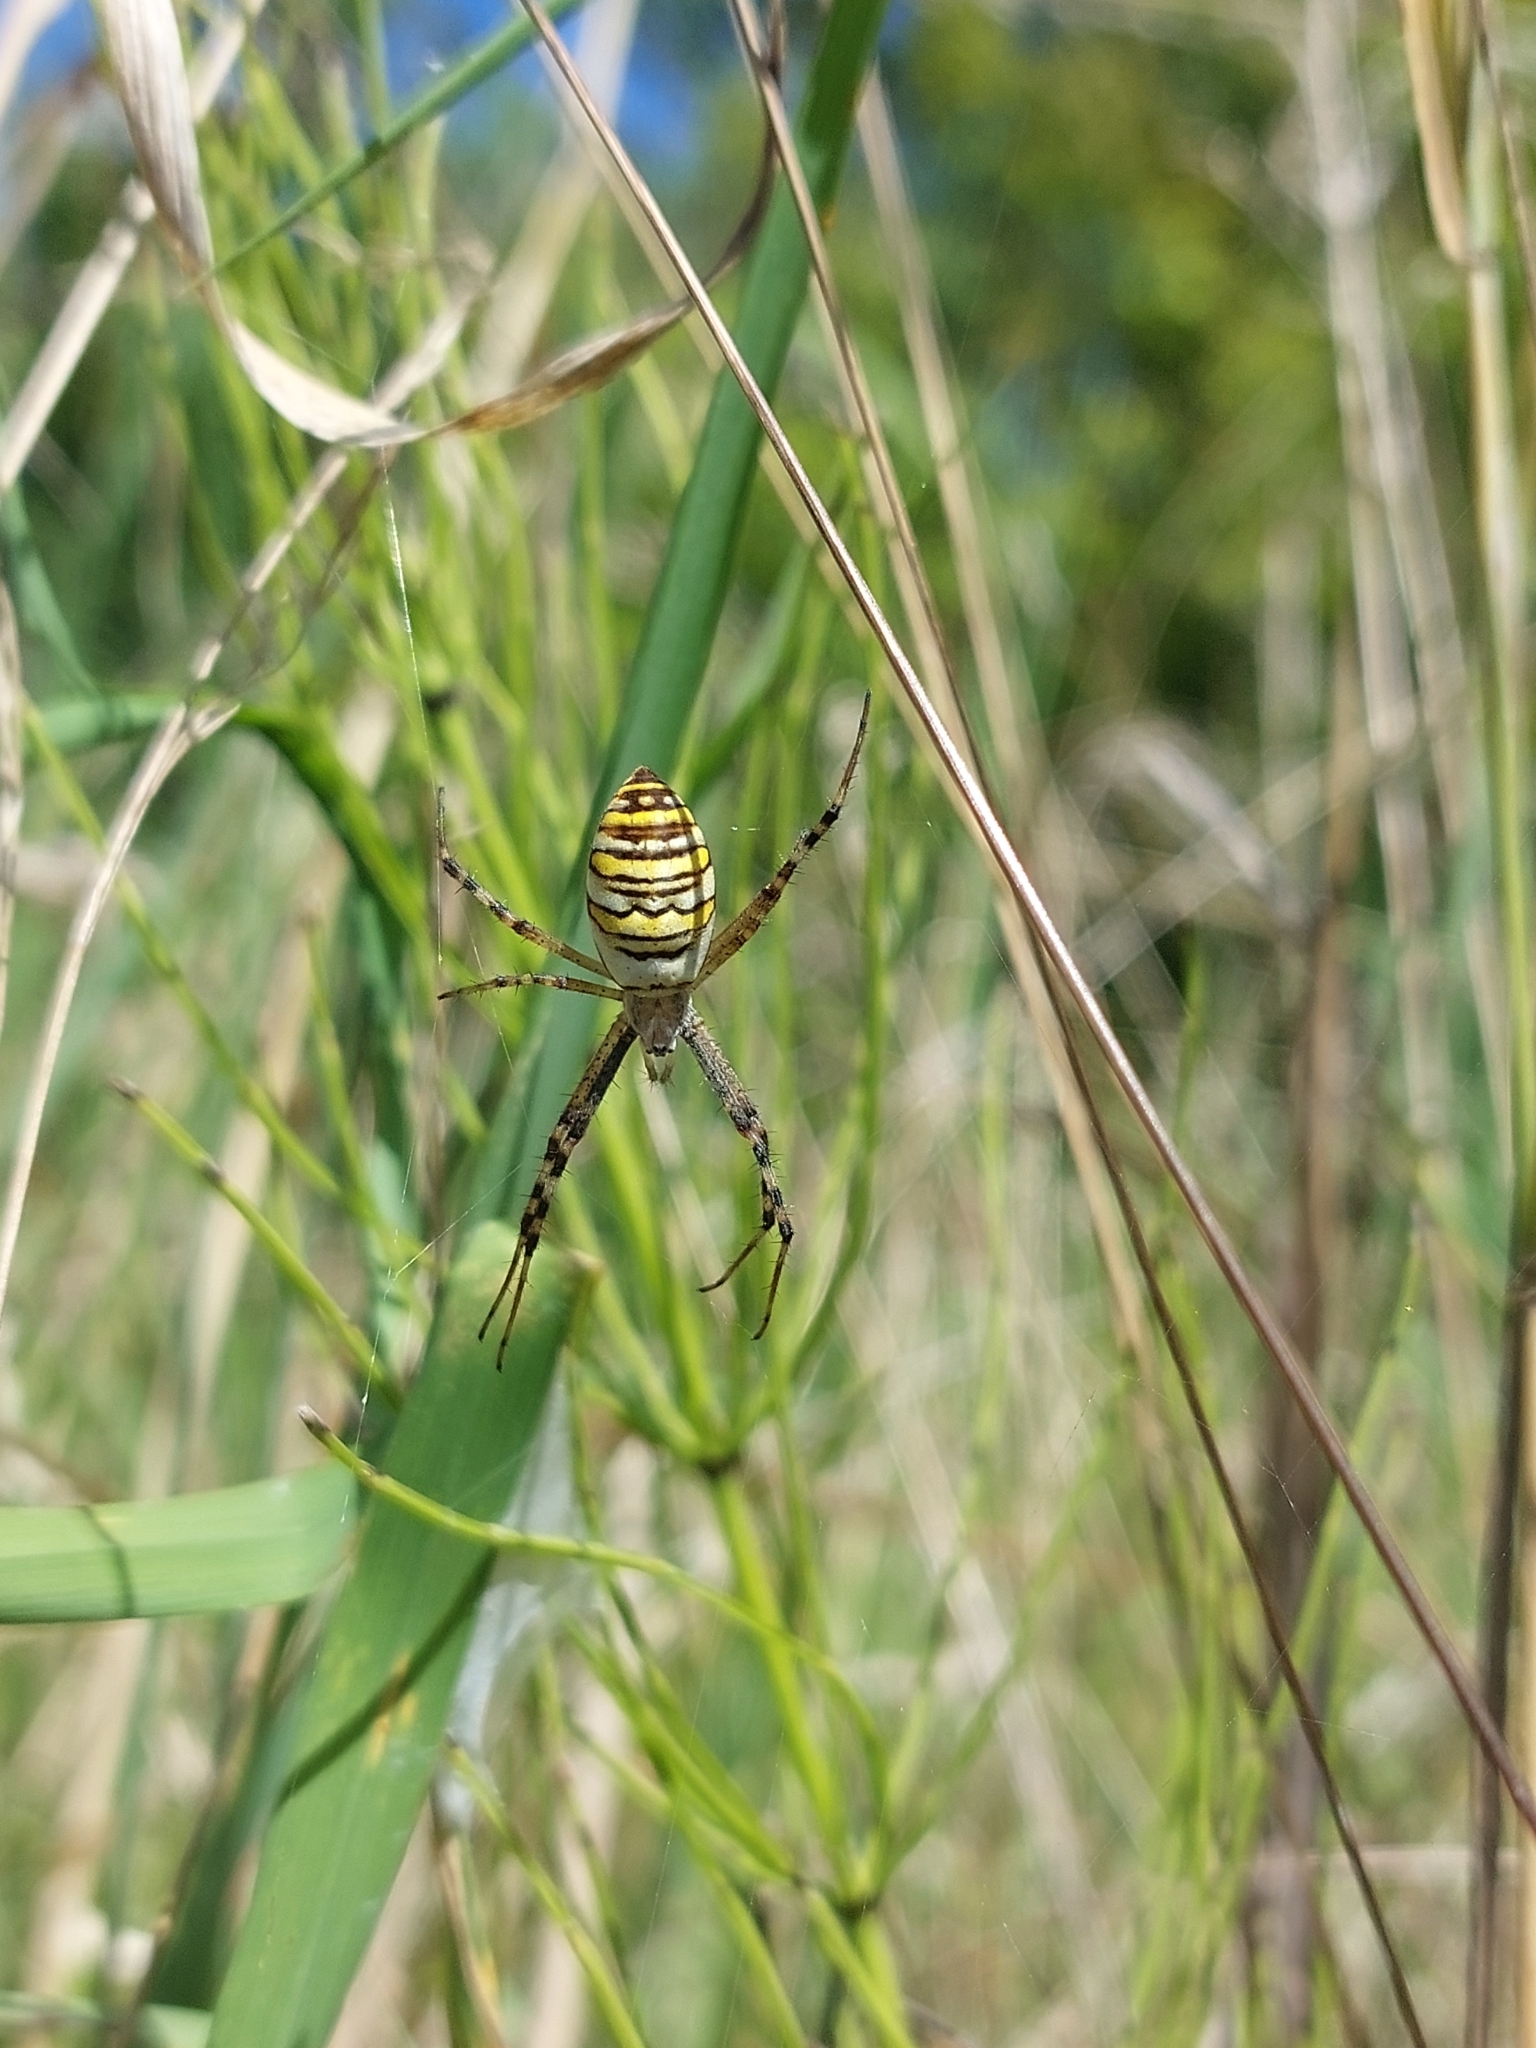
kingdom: Animalia
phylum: Arthropoda
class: Arachnida
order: Araneae
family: Araneidae
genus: Argiope
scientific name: Argiope bruennichi
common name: Wasp spider
